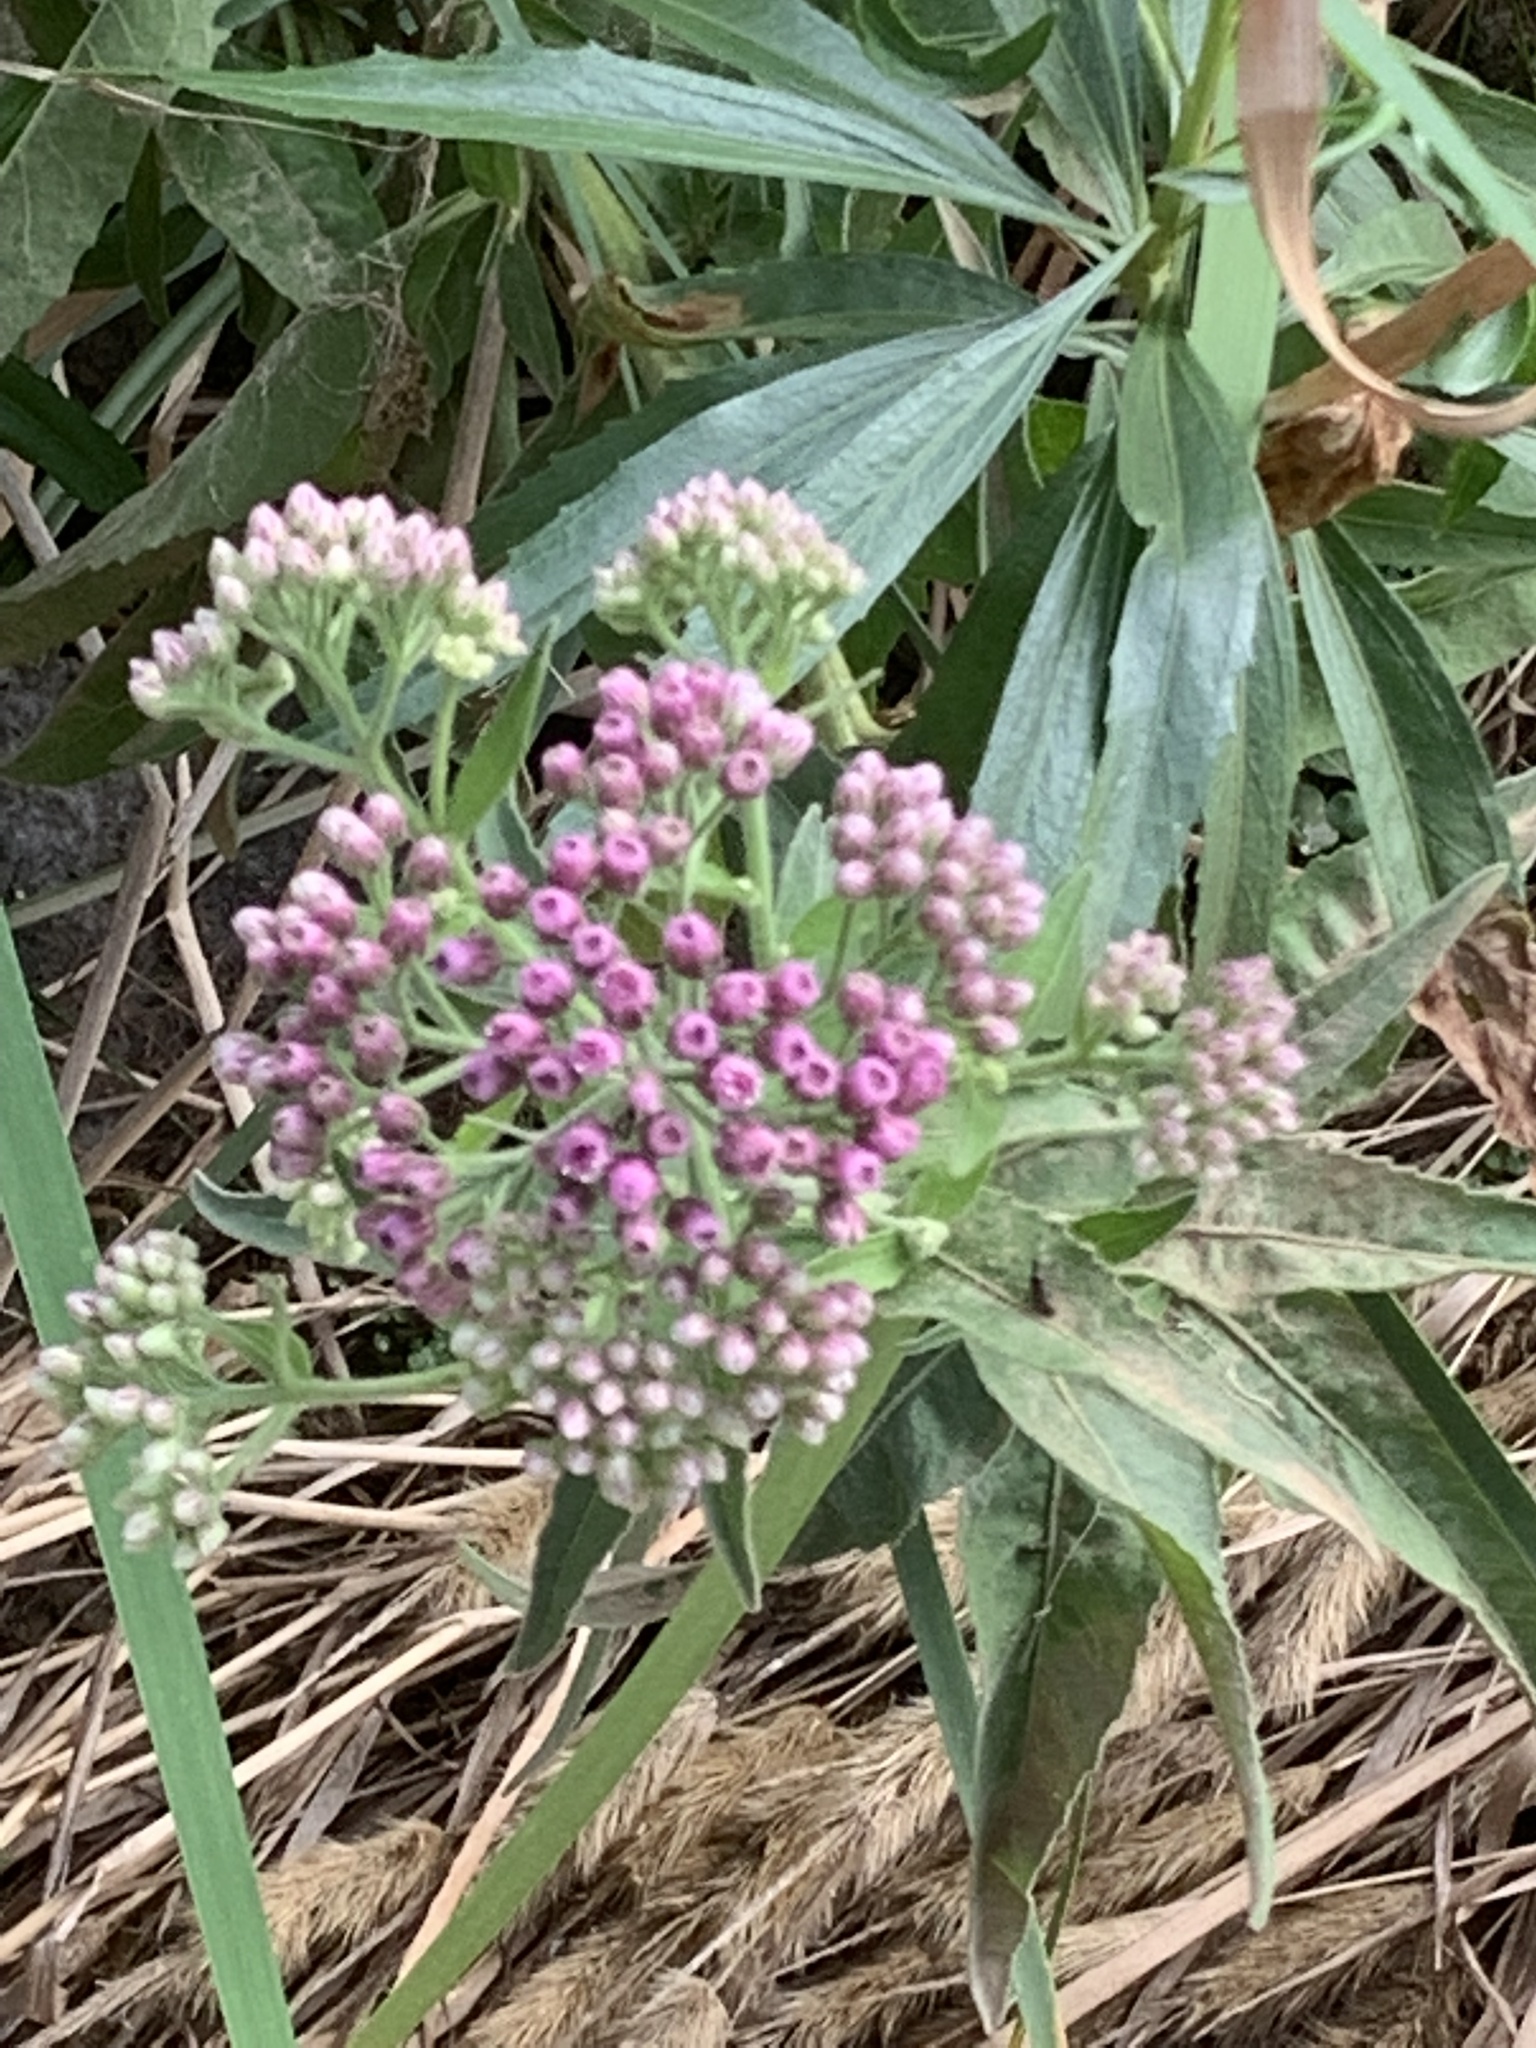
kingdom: Plantae
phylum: Tracheophyta
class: Magnoliopsida
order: Asterales
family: Asteraceae
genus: Pluchea
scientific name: Pluchea odorata
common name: Saltmarsh fleabane
